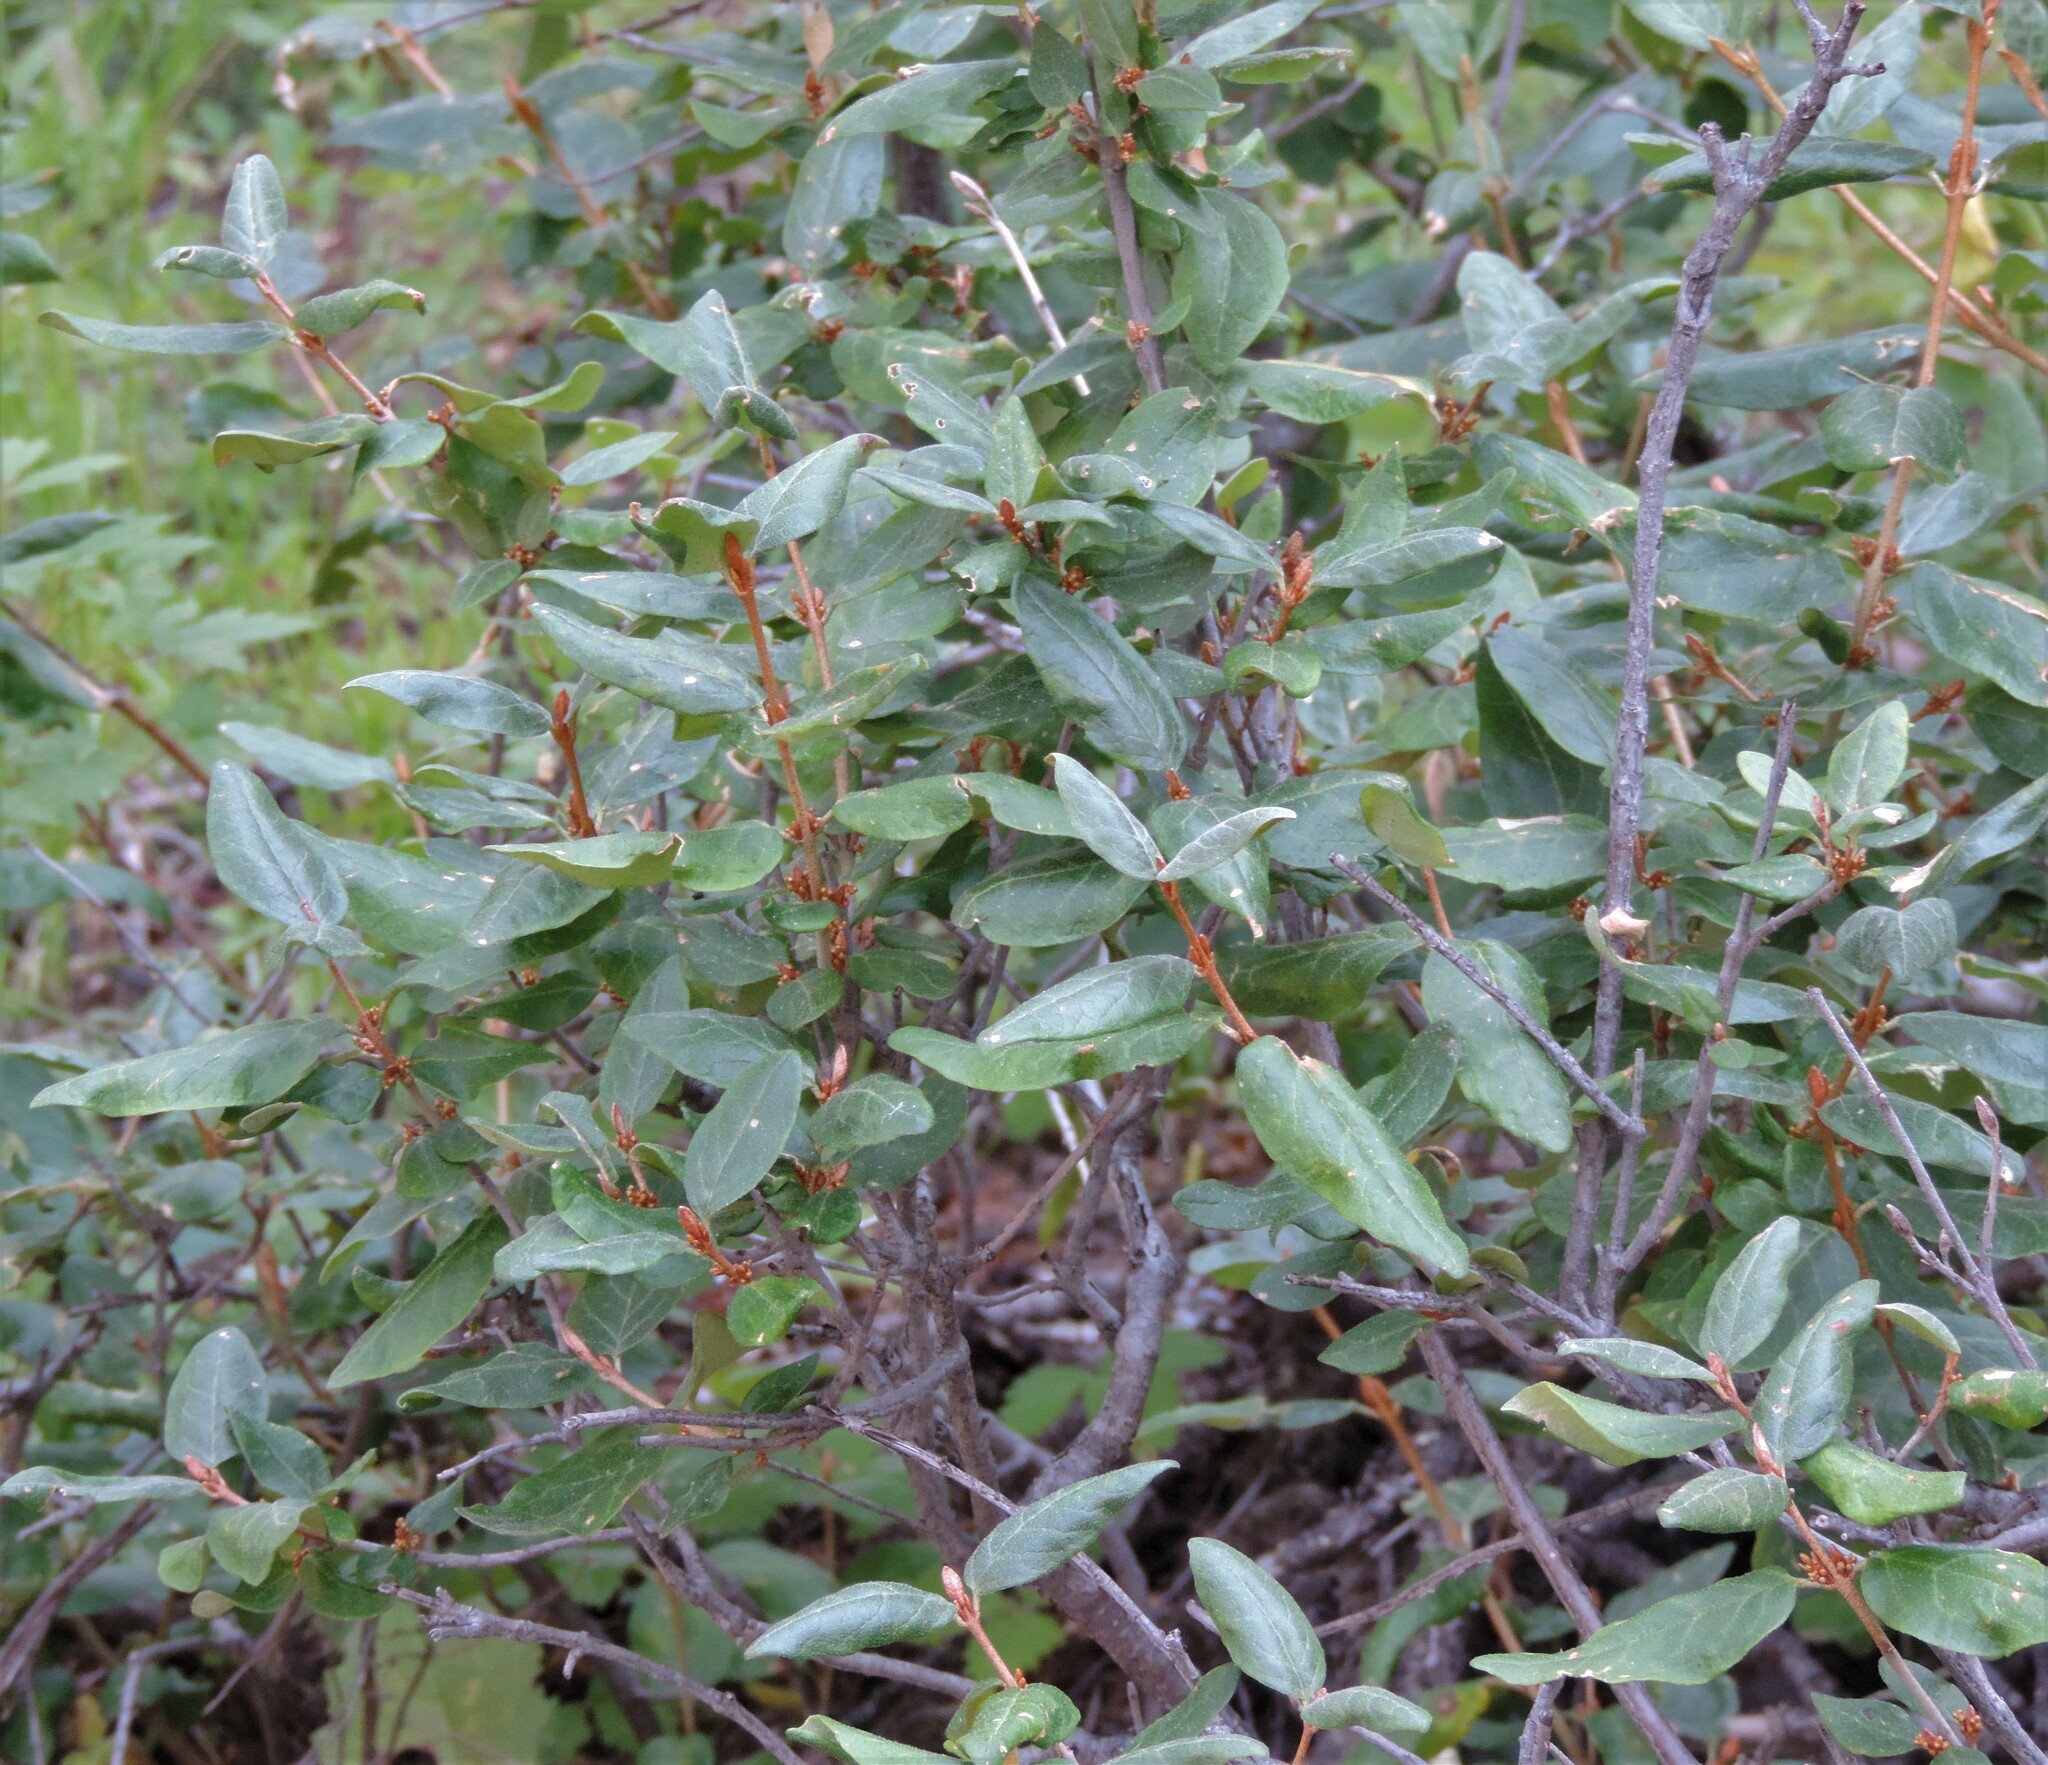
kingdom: Plantae
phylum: Tracheophyta
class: Magnoliopsida
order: Rosales
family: Elaeagnaceae
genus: Shepherdia
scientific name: Shepherdia canadensis
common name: Soapberry
